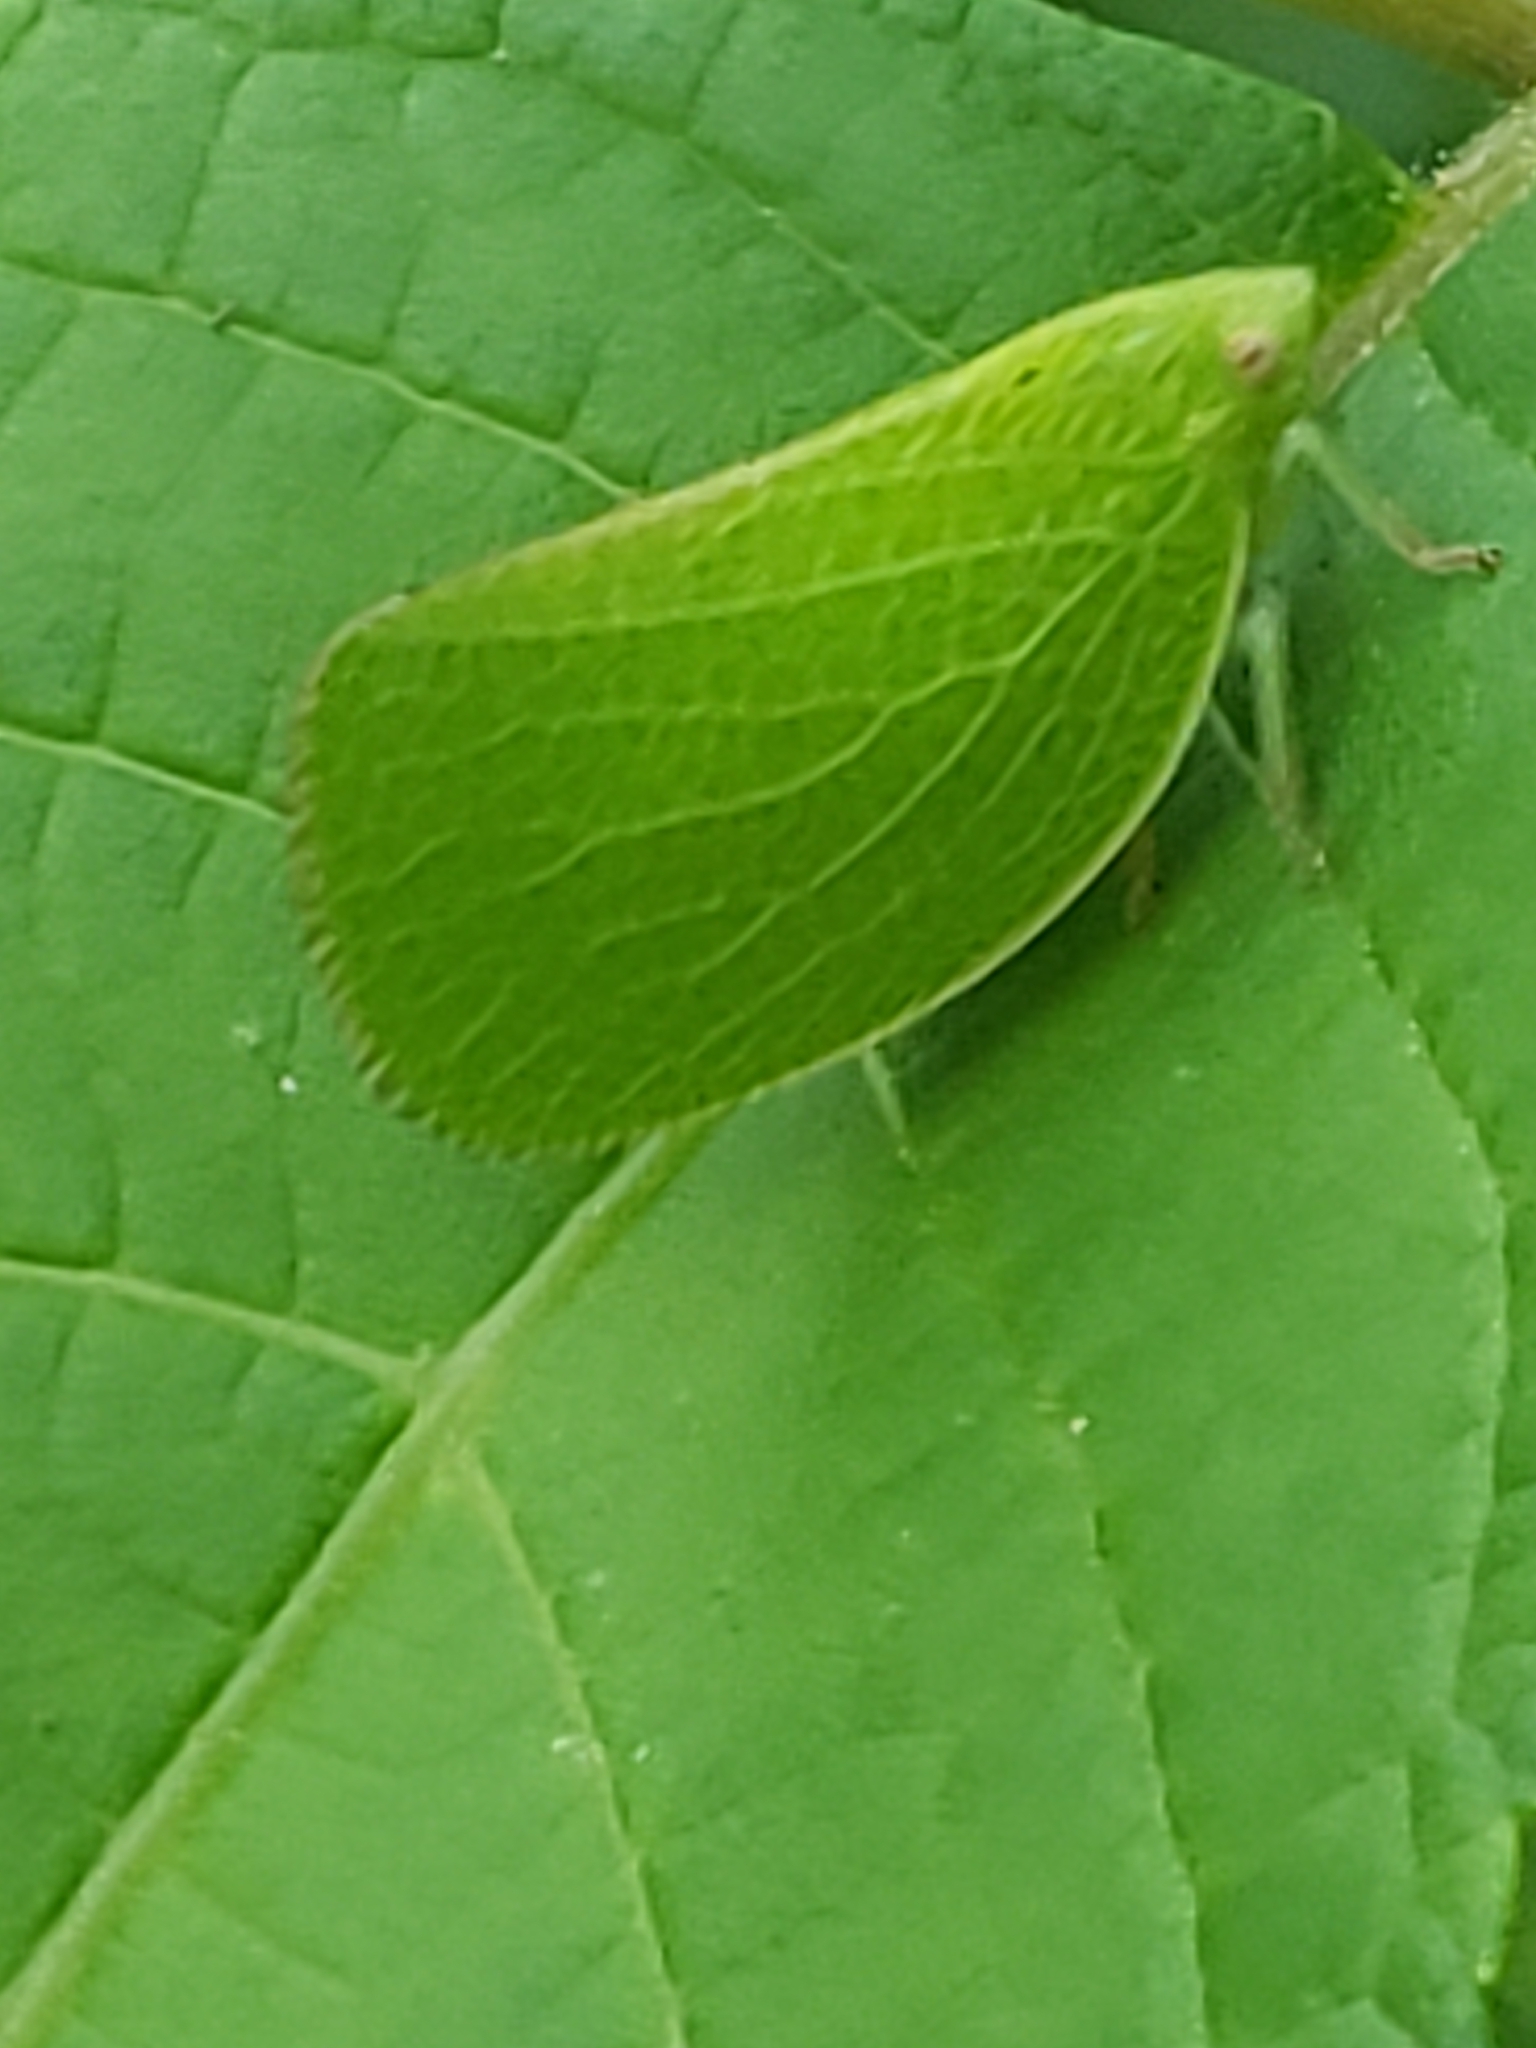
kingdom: Animalia
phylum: Arthropoda
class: Insecta
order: Hemiptera
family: Acanaloniidae
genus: Acanalonia
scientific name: Acanalonia conica
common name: Green cone-headed planthopper
